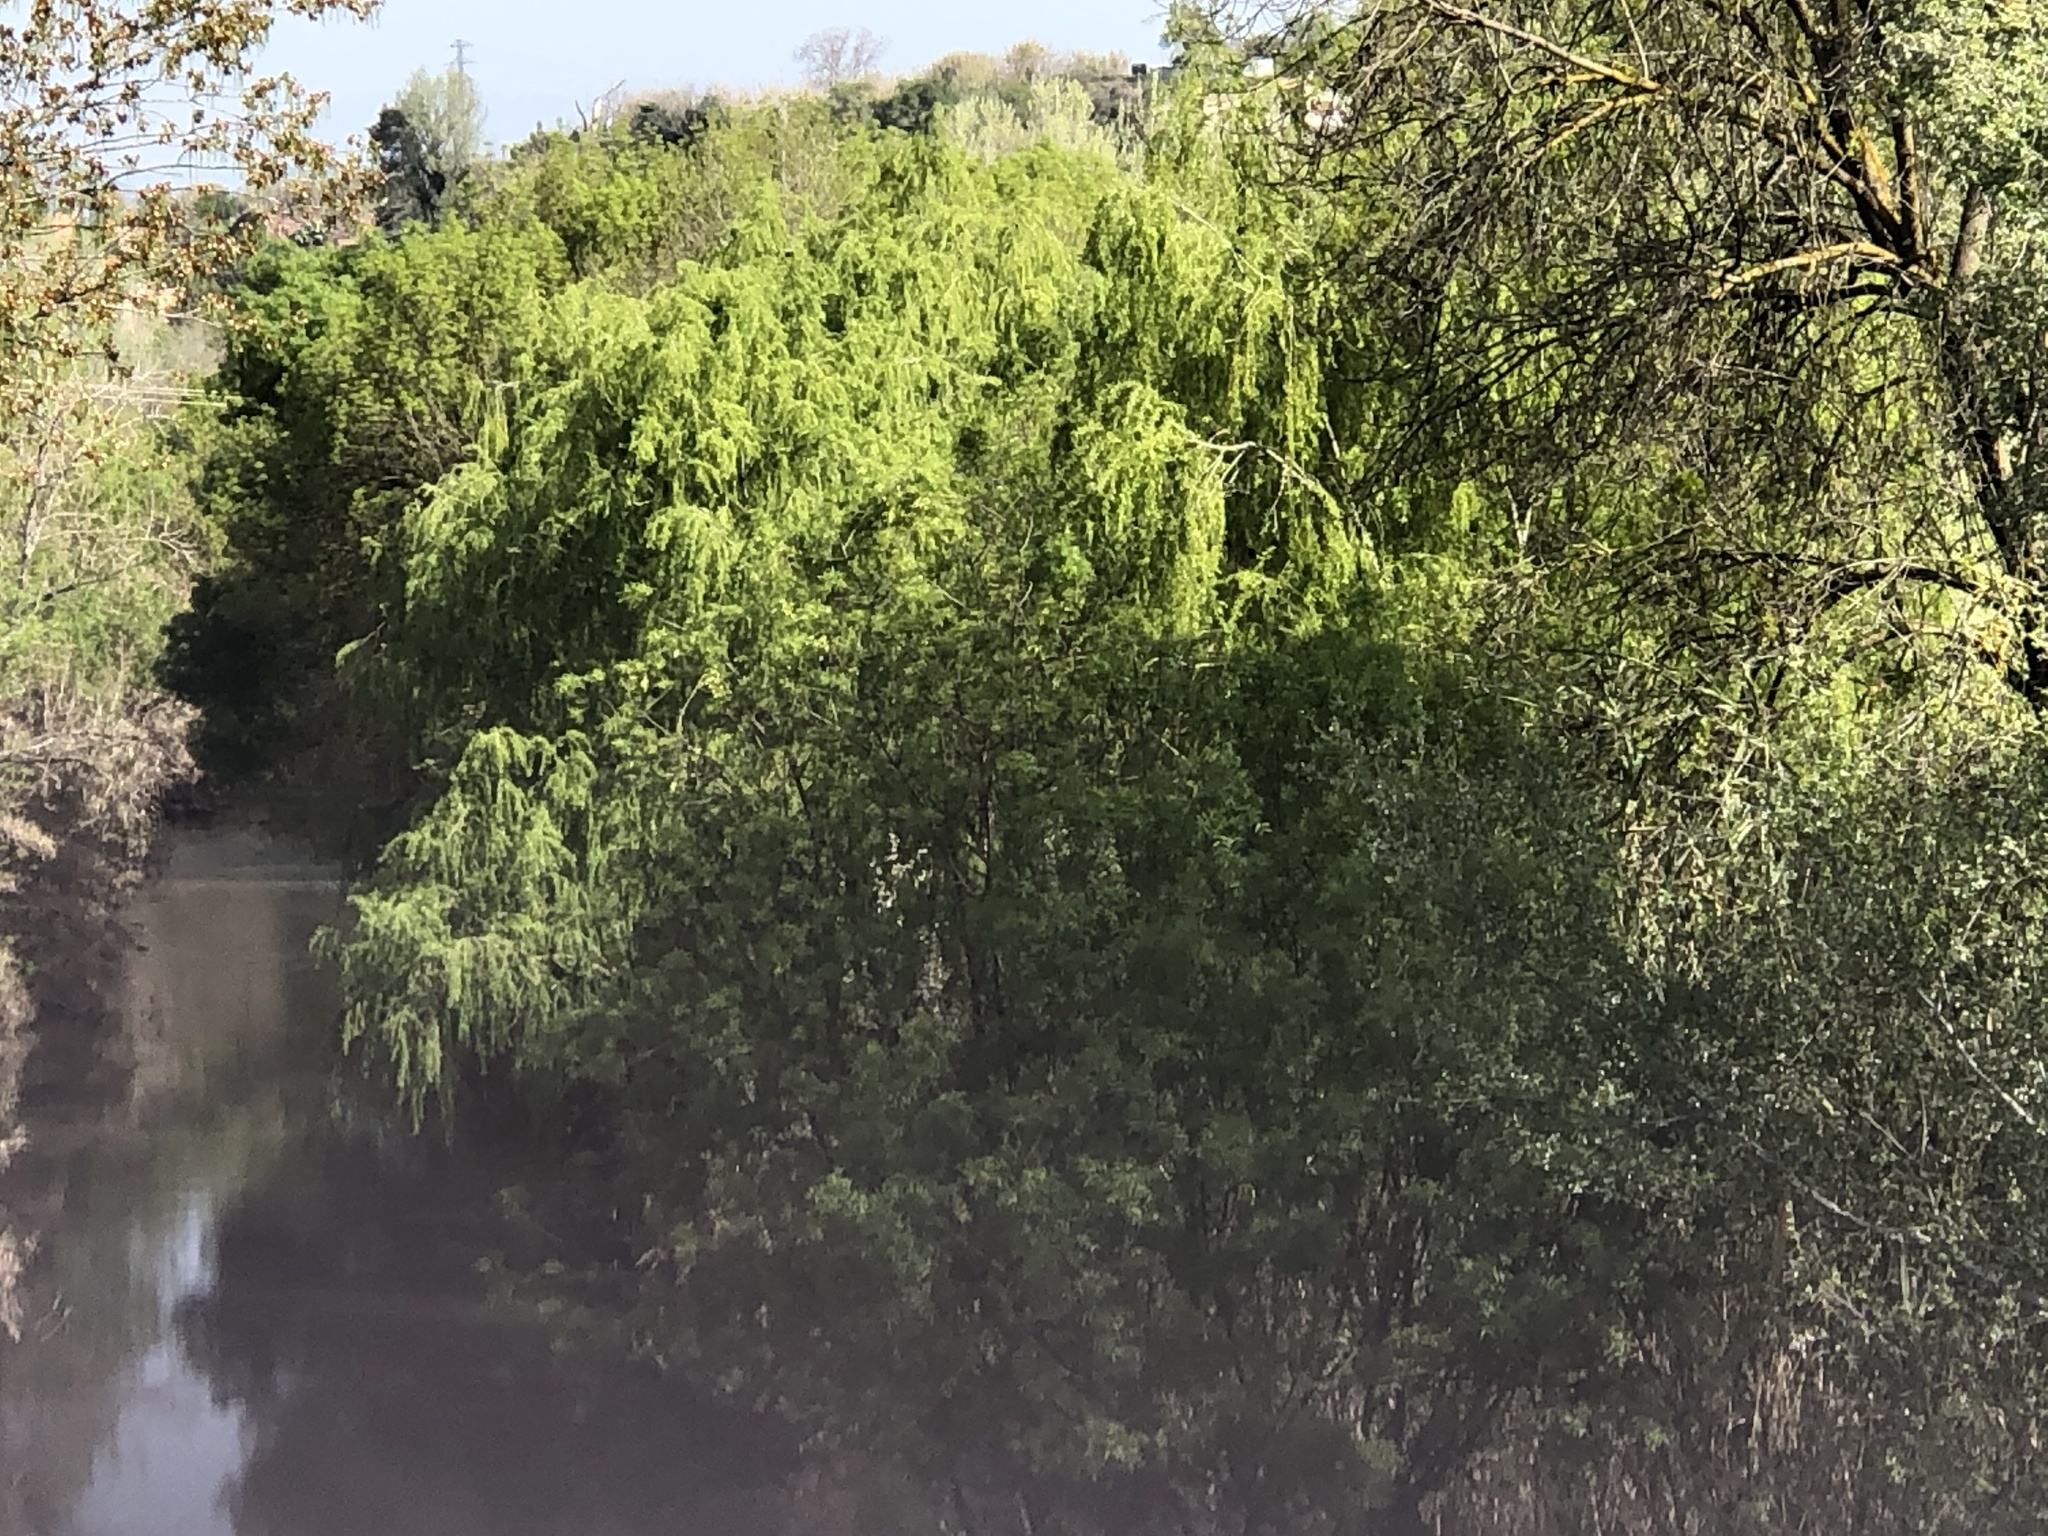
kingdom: Plantae
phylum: Tracheophyta
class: Magnoliopsida
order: Malpighiales
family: Salicaceae
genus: Salix
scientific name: Salix babylonica
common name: Weeping willow
